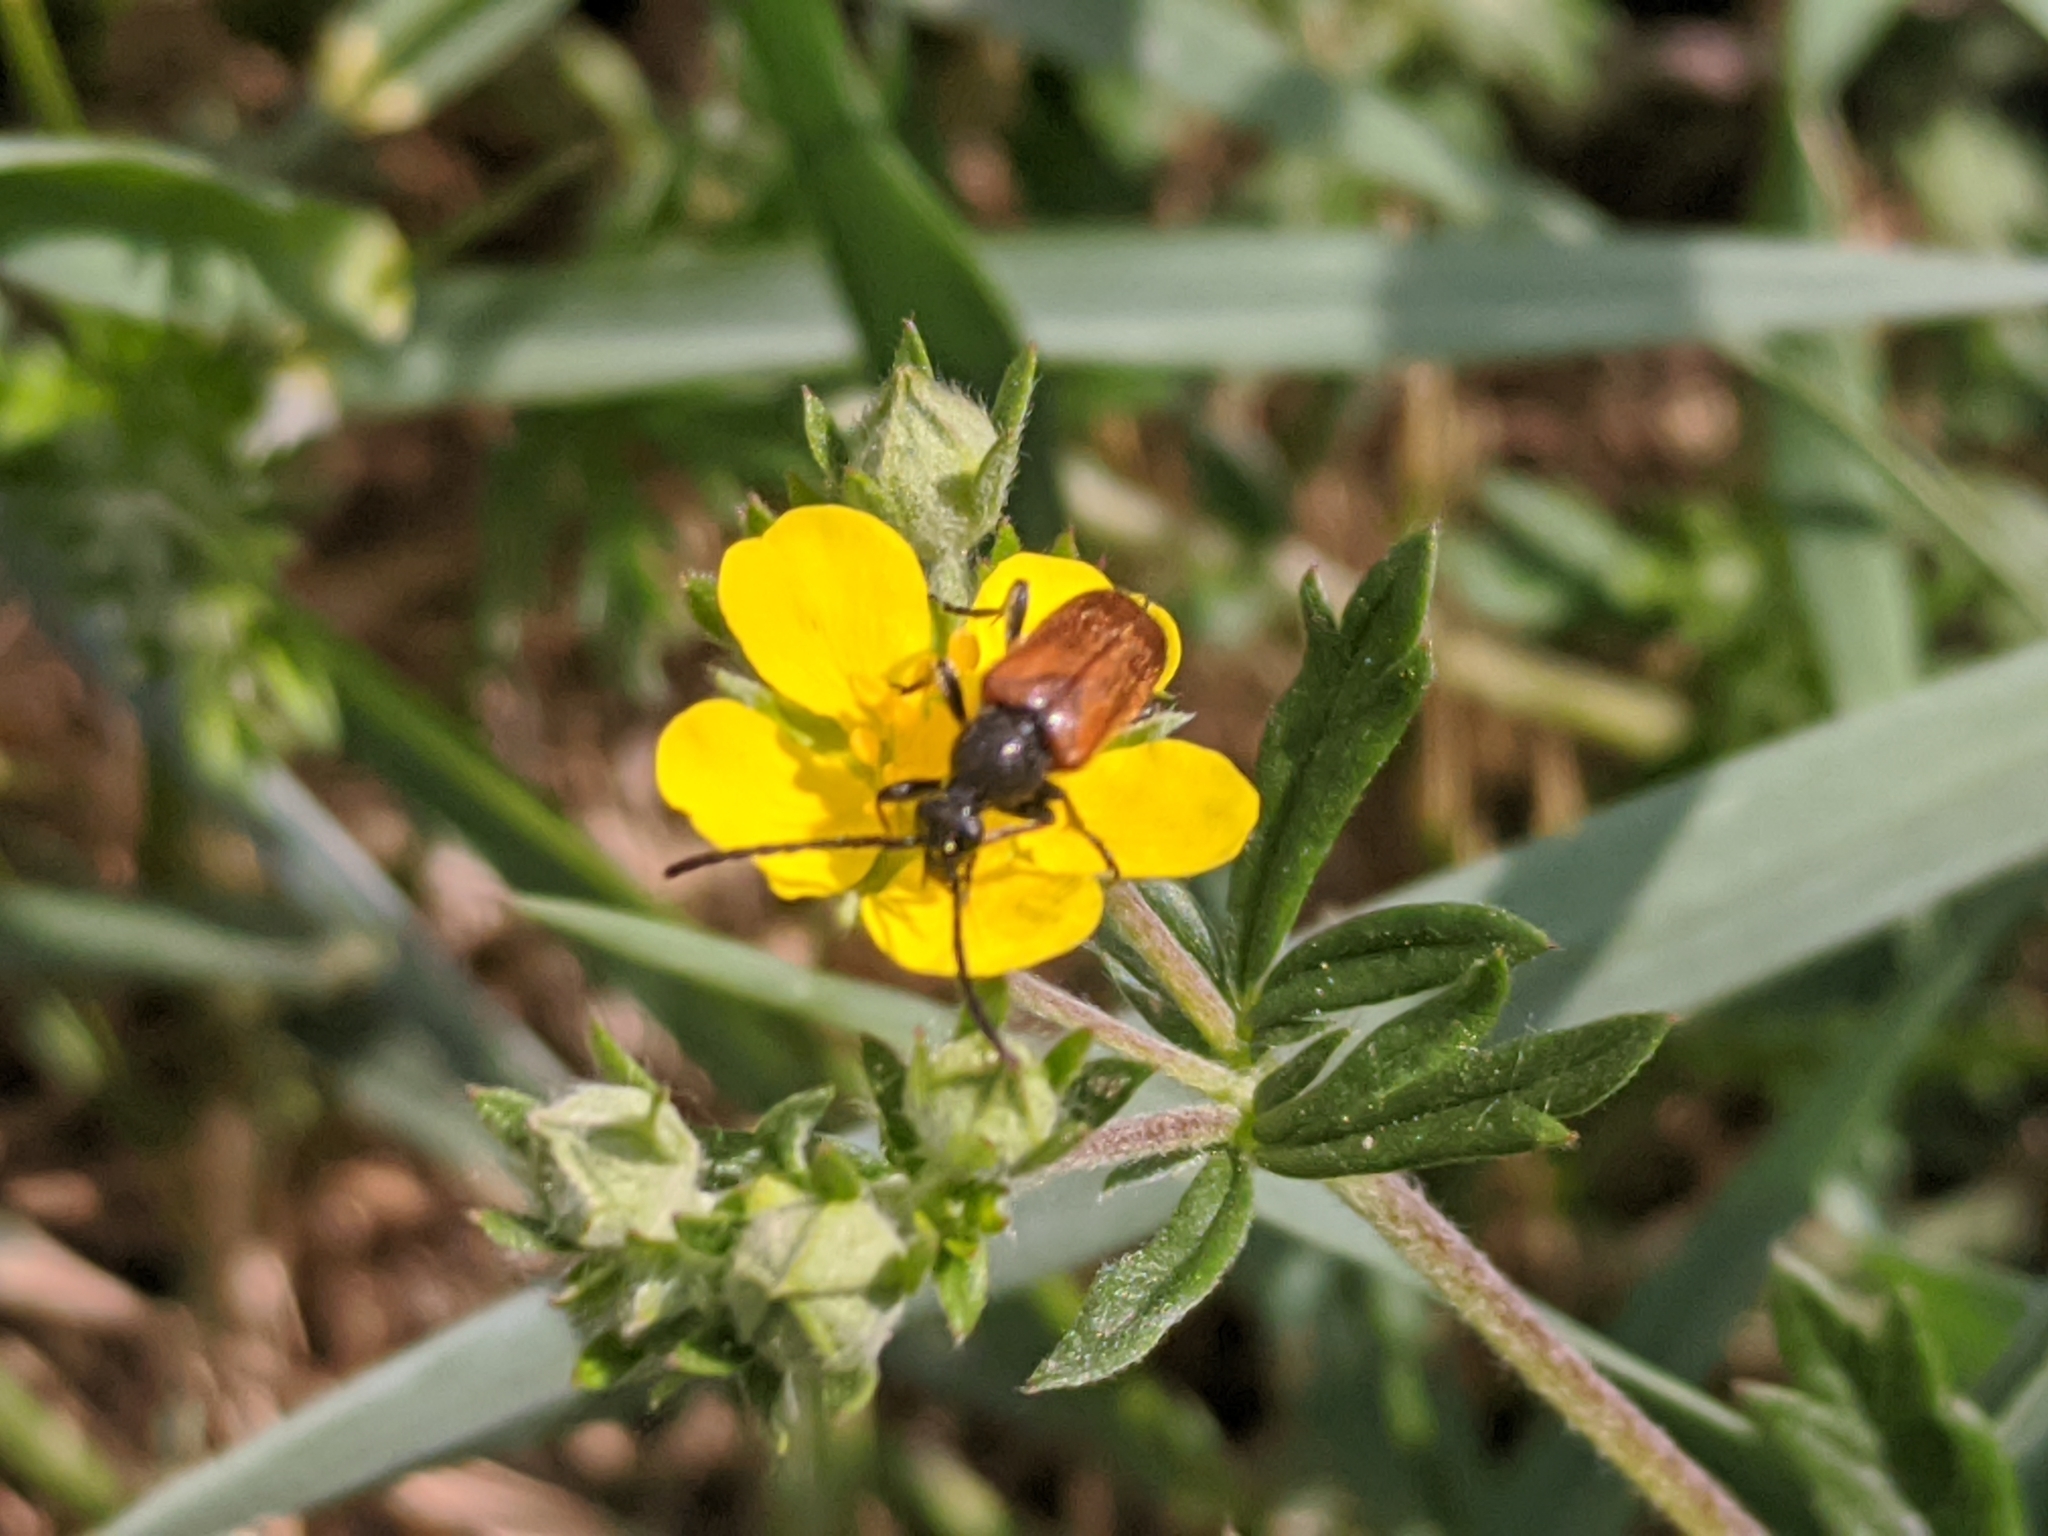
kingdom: Animalia
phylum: Arthropoda
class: Insecta
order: Coleoptera
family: Cerambycidae
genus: Pseudovadonia
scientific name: Pseudovadonia livida
